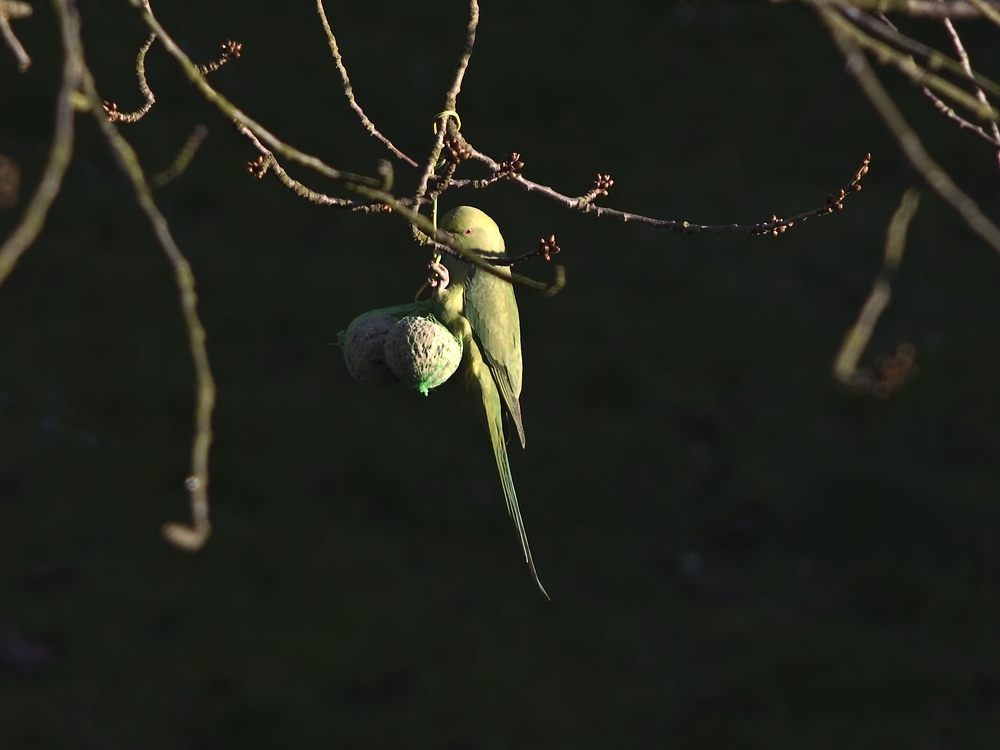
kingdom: Animalia
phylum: Chordata
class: Aves
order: Psittaciformes
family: Psittacidae
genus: Psittacula
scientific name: Psittacula krameri
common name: Rose-ringed parakeet
